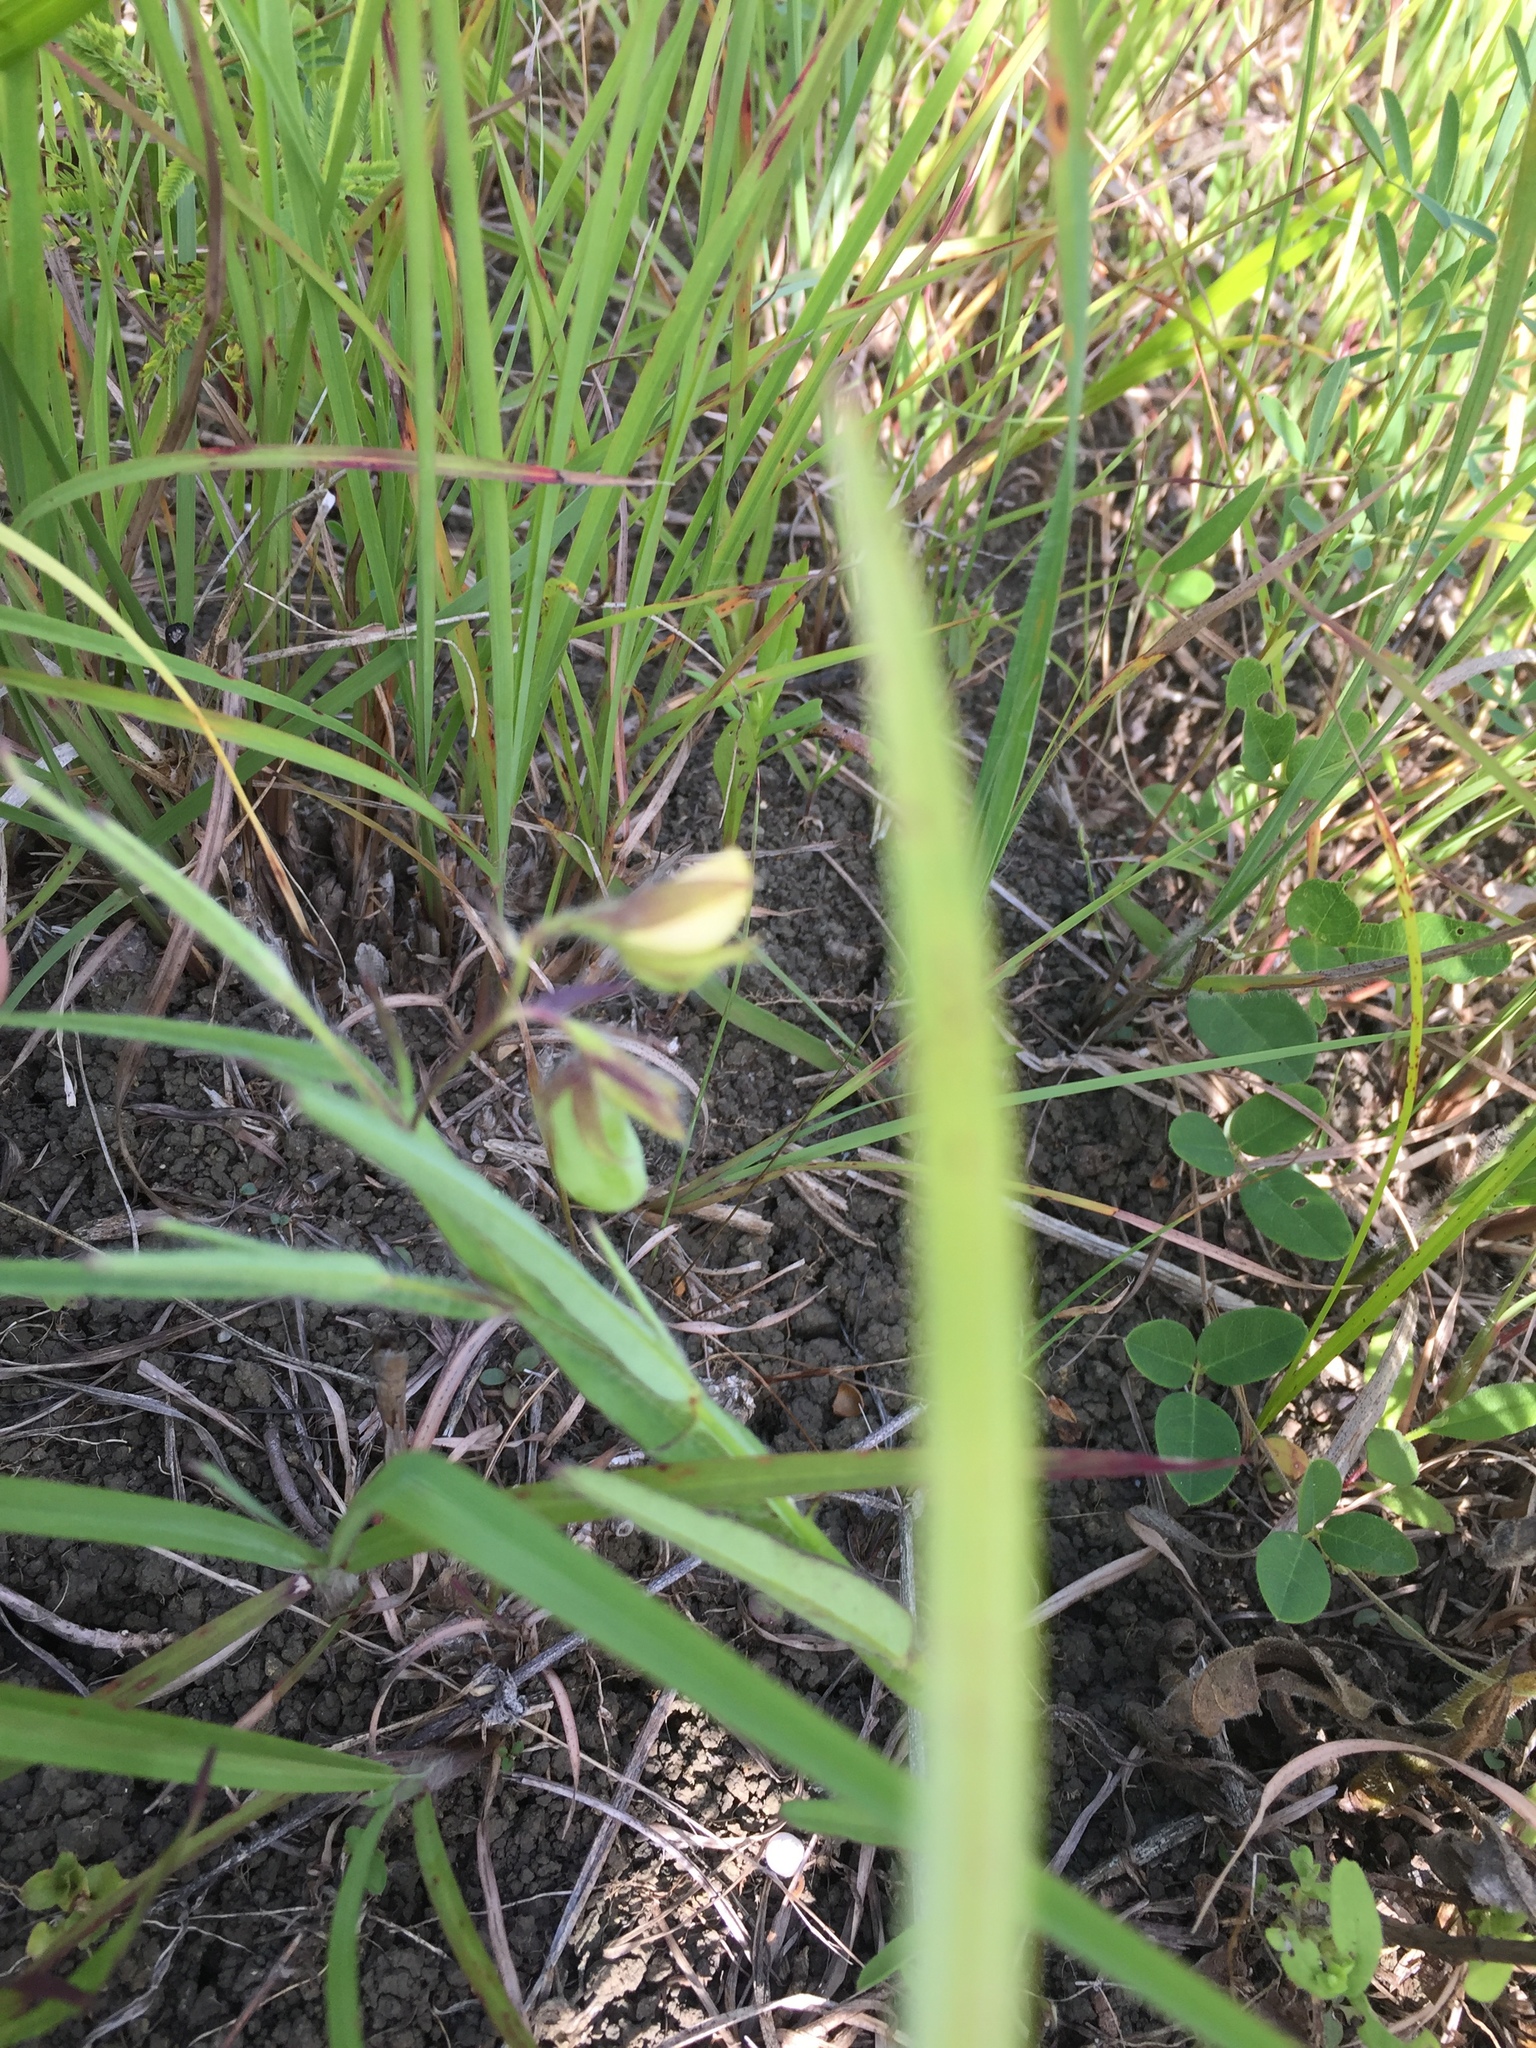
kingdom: Plantae
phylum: Tracheophyta
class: Magnoliopsida
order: Fabales
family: Fabaceae
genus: Crotalaria
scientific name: Crotalaria sagittalis
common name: Arrowhead rattlebox
